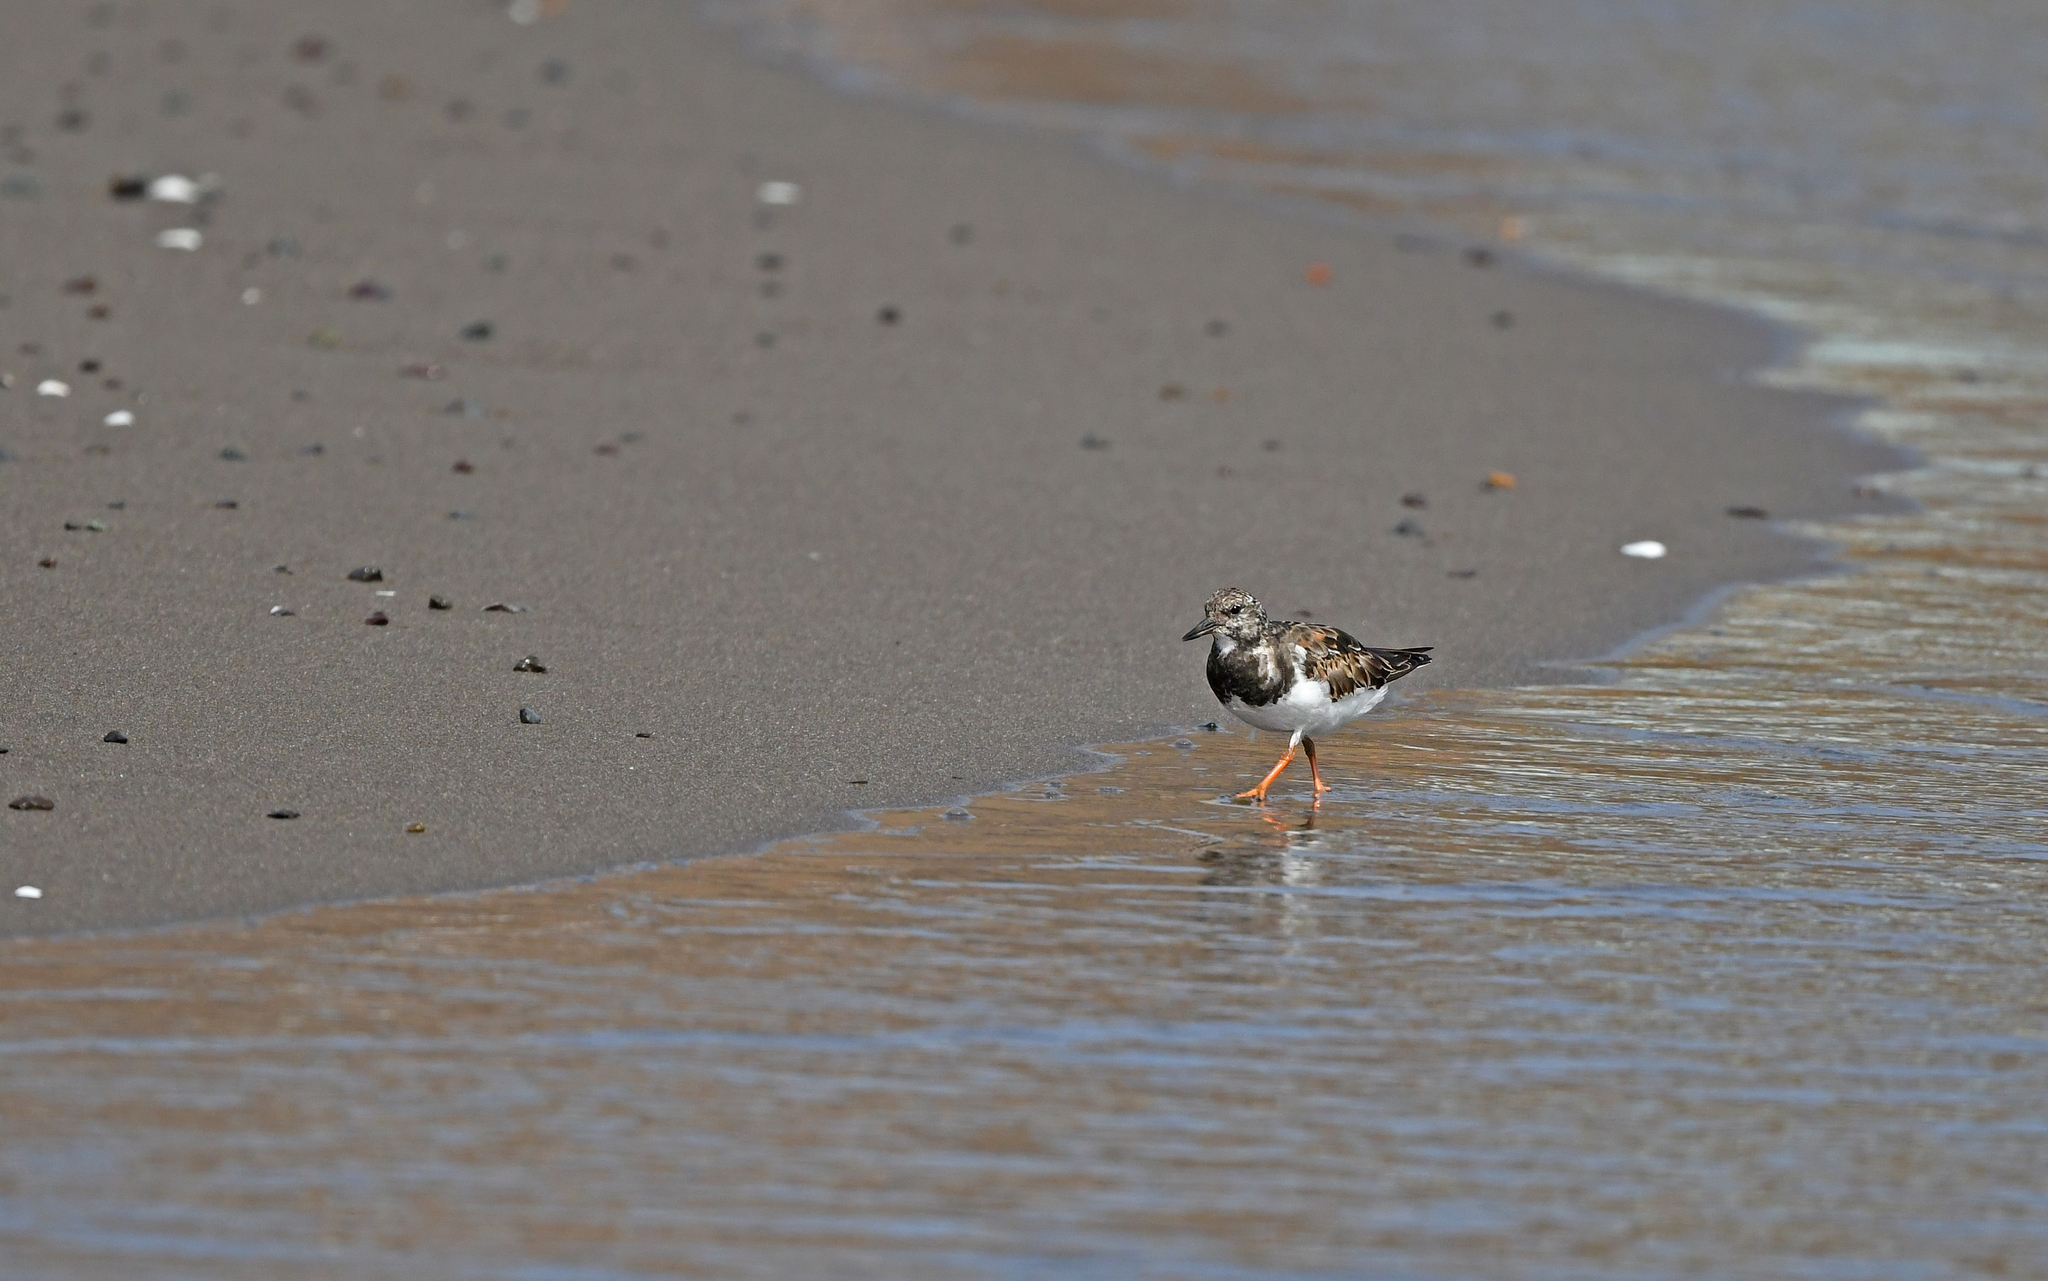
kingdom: Animalia
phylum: Chordata
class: Aves
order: Charadriiformes
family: Scolopacidae
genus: Arenaria
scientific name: Arenaria interpres
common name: Ruddy turnstone
